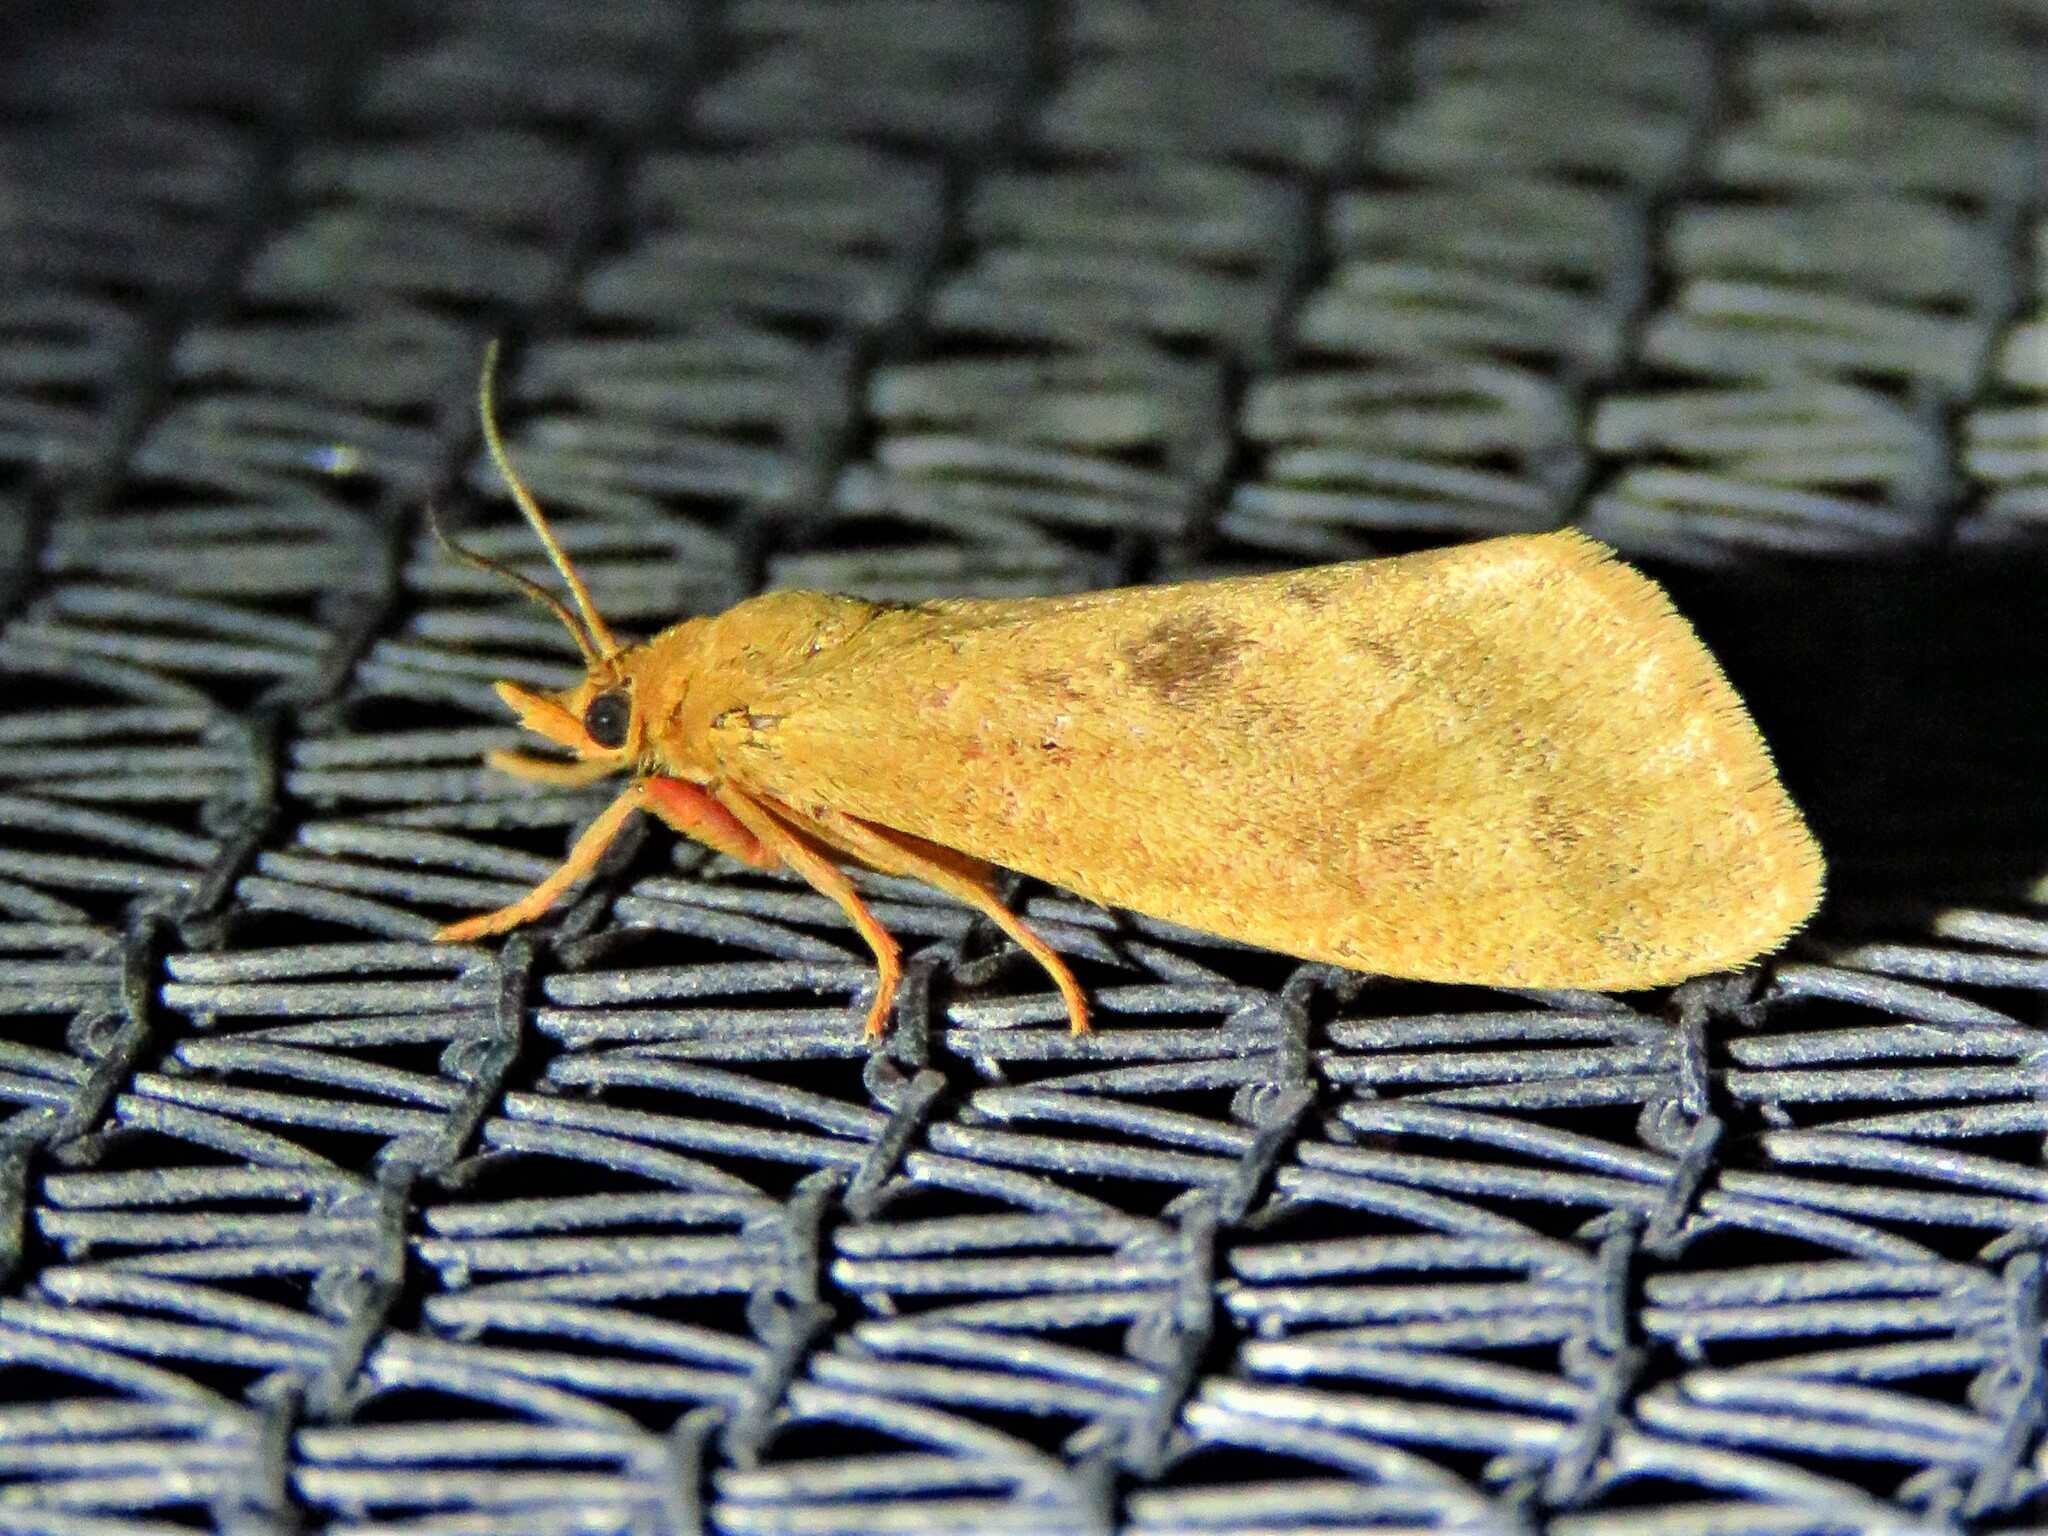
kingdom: Animalia
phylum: Arthropoda
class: Insecta
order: Lepidoptera
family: Erebidae
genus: Virbia
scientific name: Virbia aurantiaca
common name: Orange virbia moth
